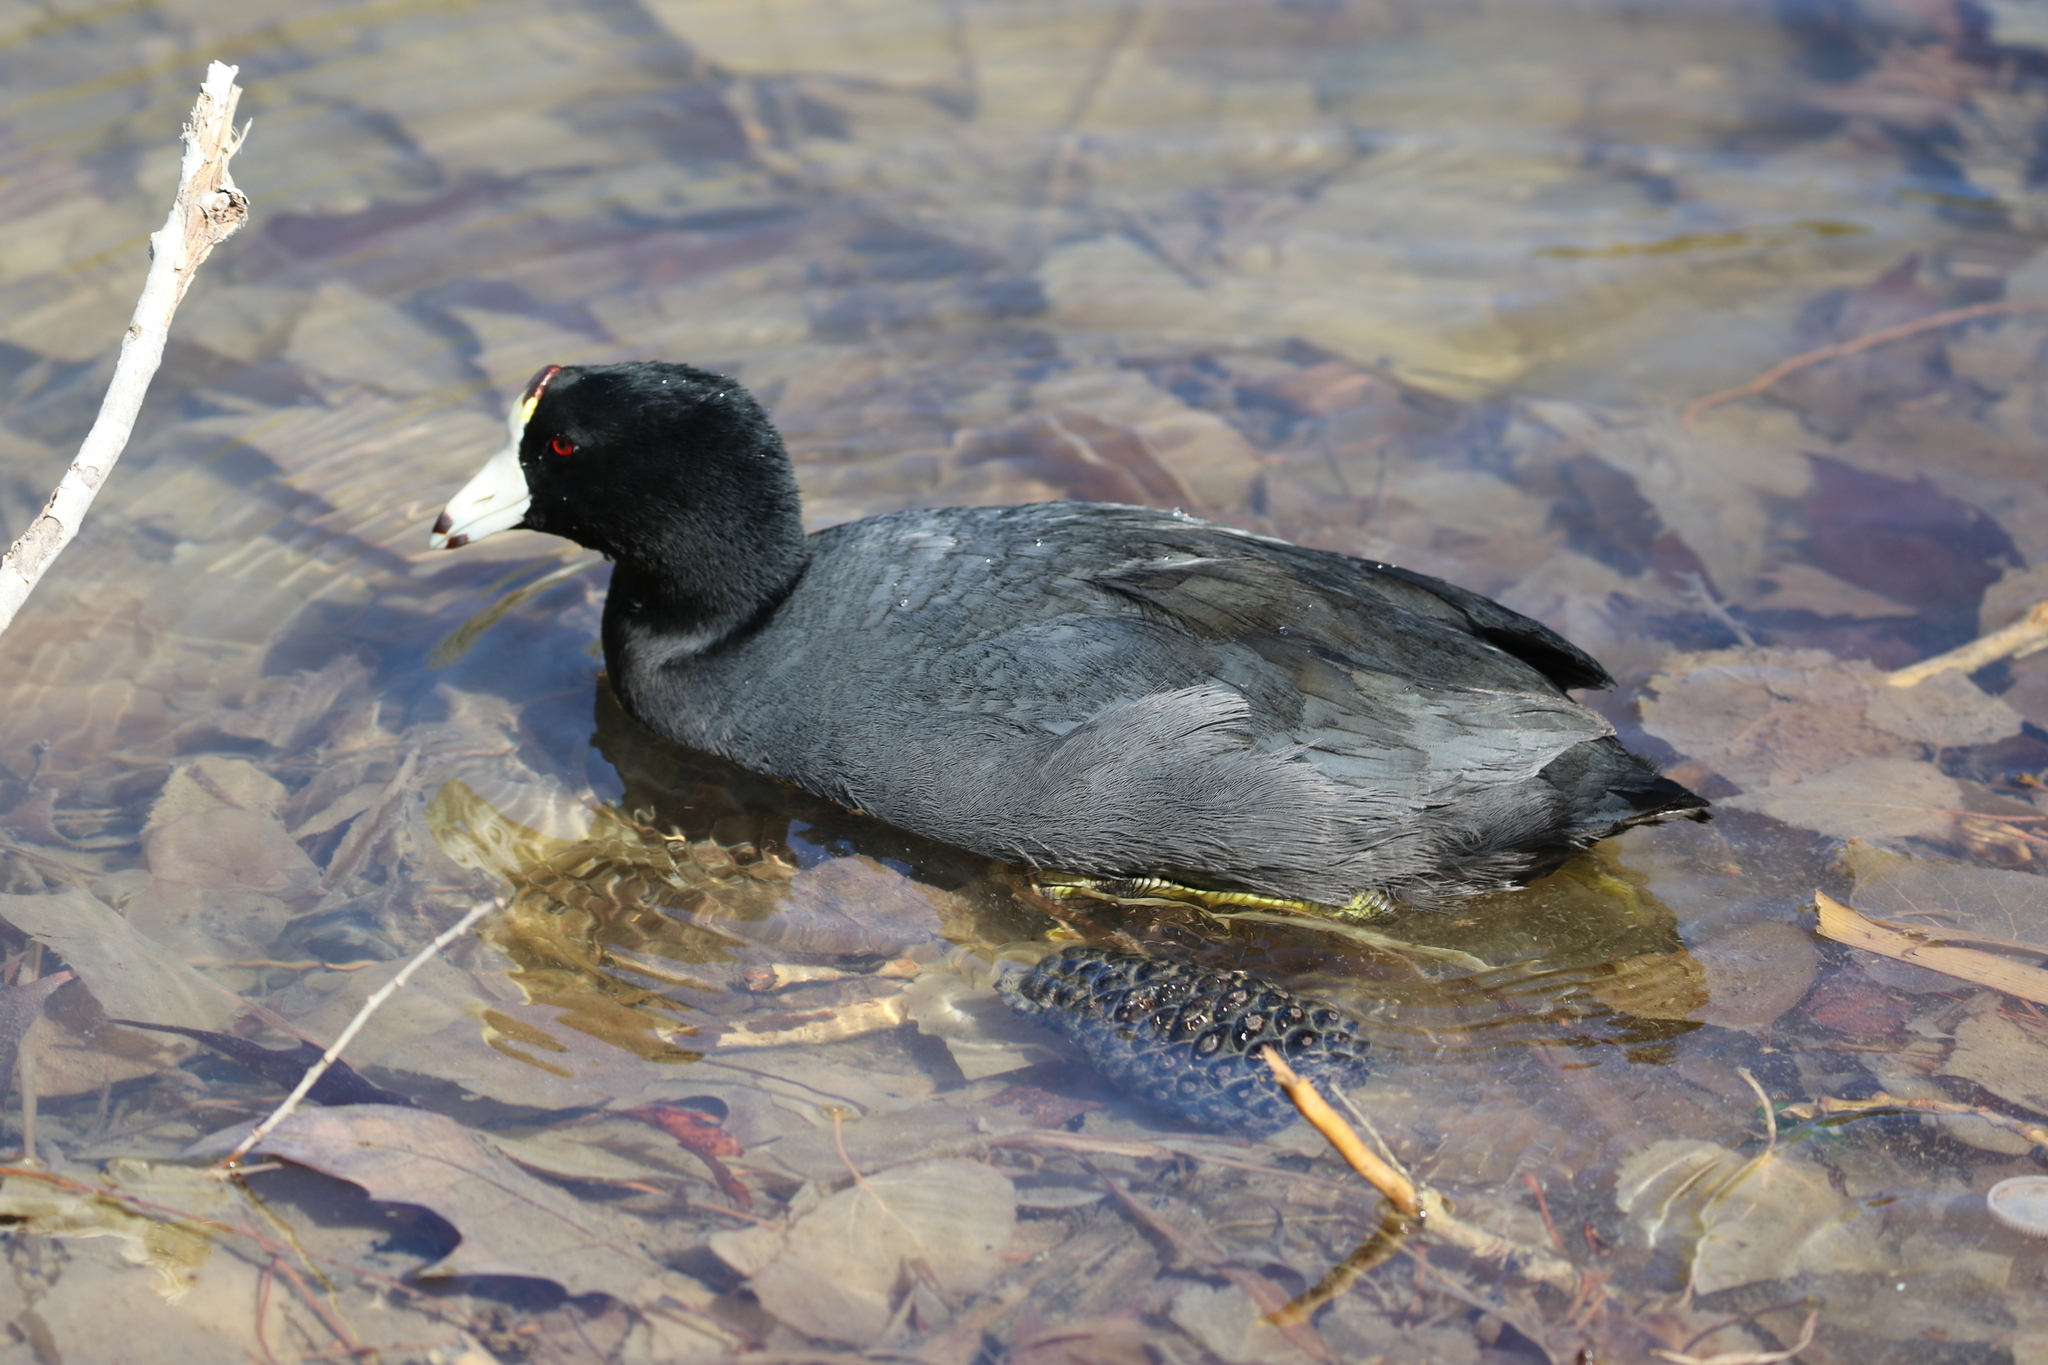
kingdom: Animalia
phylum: Chordata
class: Aves
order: Gruiformes
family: Rallidae
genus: Fulica
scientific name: Fulica americana
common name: American coot
